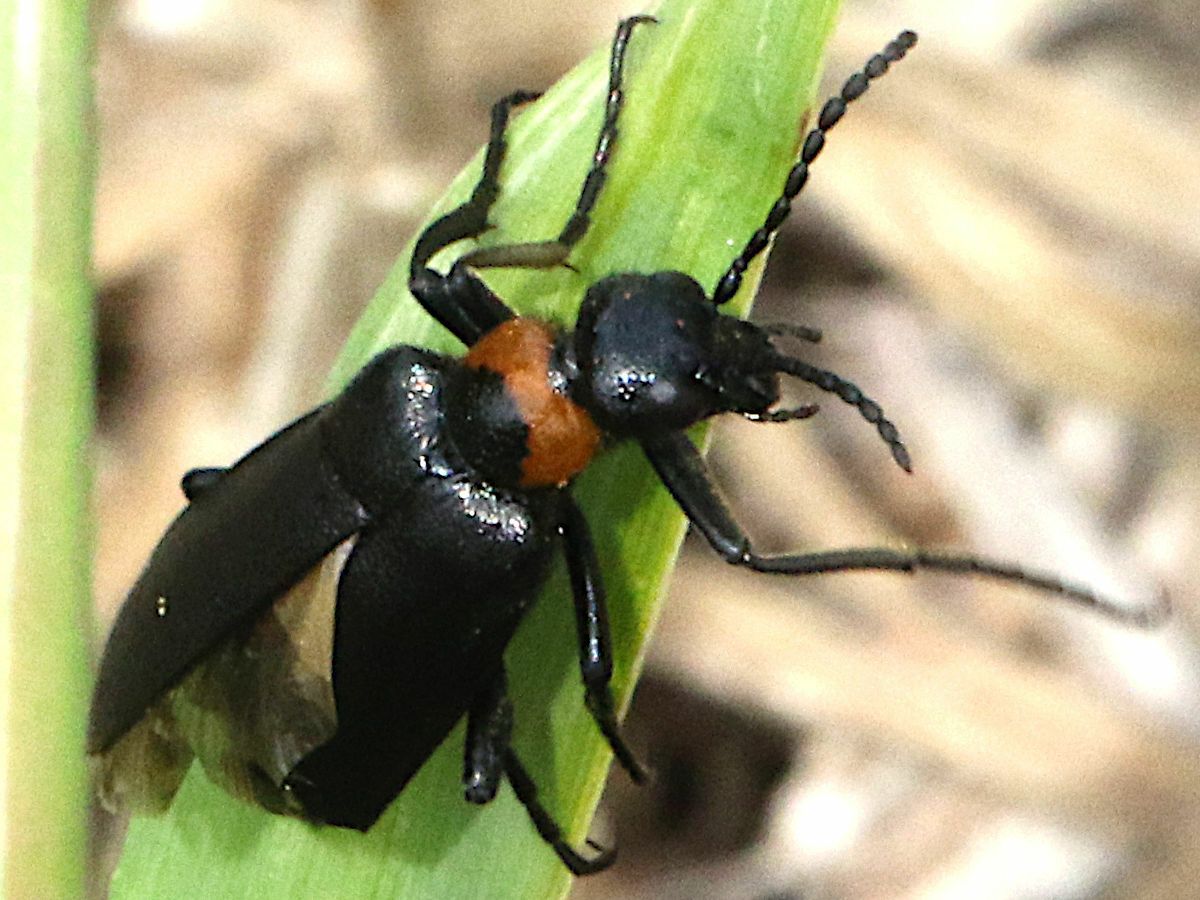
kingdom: Animalia
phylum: Arthropoda
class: Insecta
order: Coleoptera
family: Meloidae
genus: Alosimus
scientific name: Alosimus
